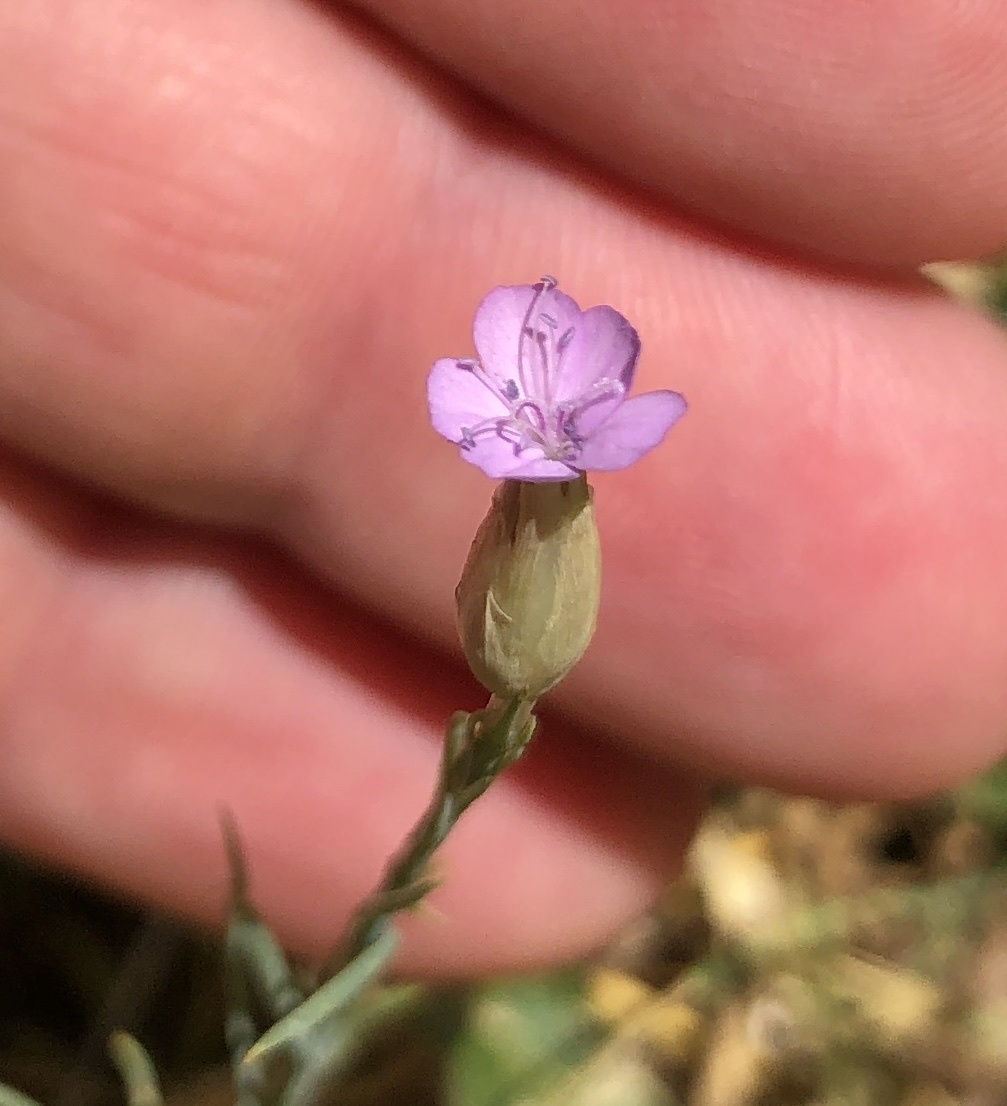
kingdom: Plantae
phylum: Tracheophyta
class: Magnoliopsida
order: Caryophyllales
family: Caryophyllaceae
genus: Petrorhagia
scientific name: Petrorhagia prolifera
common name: Proliferous pink
